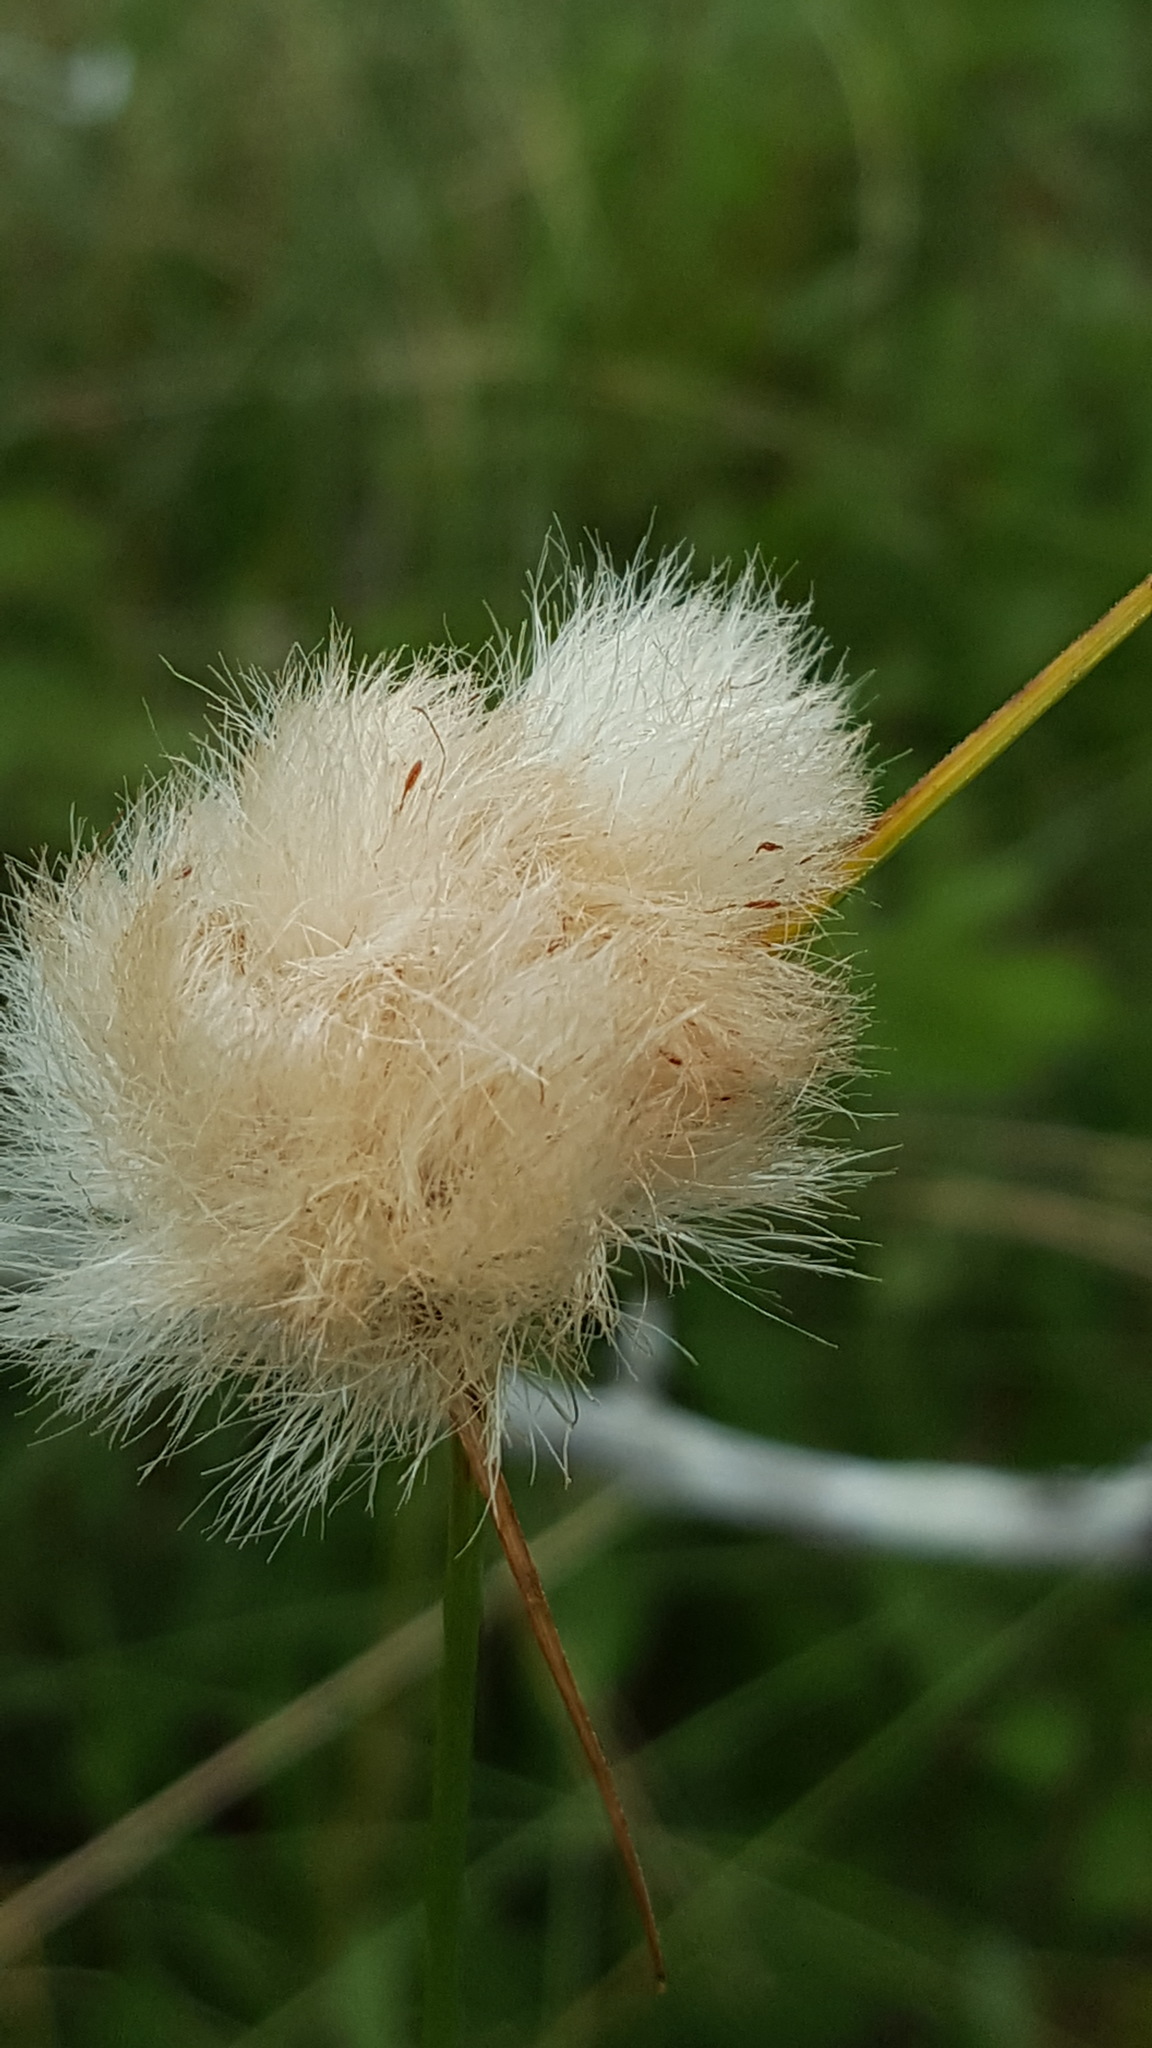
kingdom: Plantae
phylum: Tracheophyta
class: Liliopsida
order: Poales
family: Cyperaceae
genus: Eriophorum
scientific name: Eriophorum virginicum
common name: Tawny cottongrass
